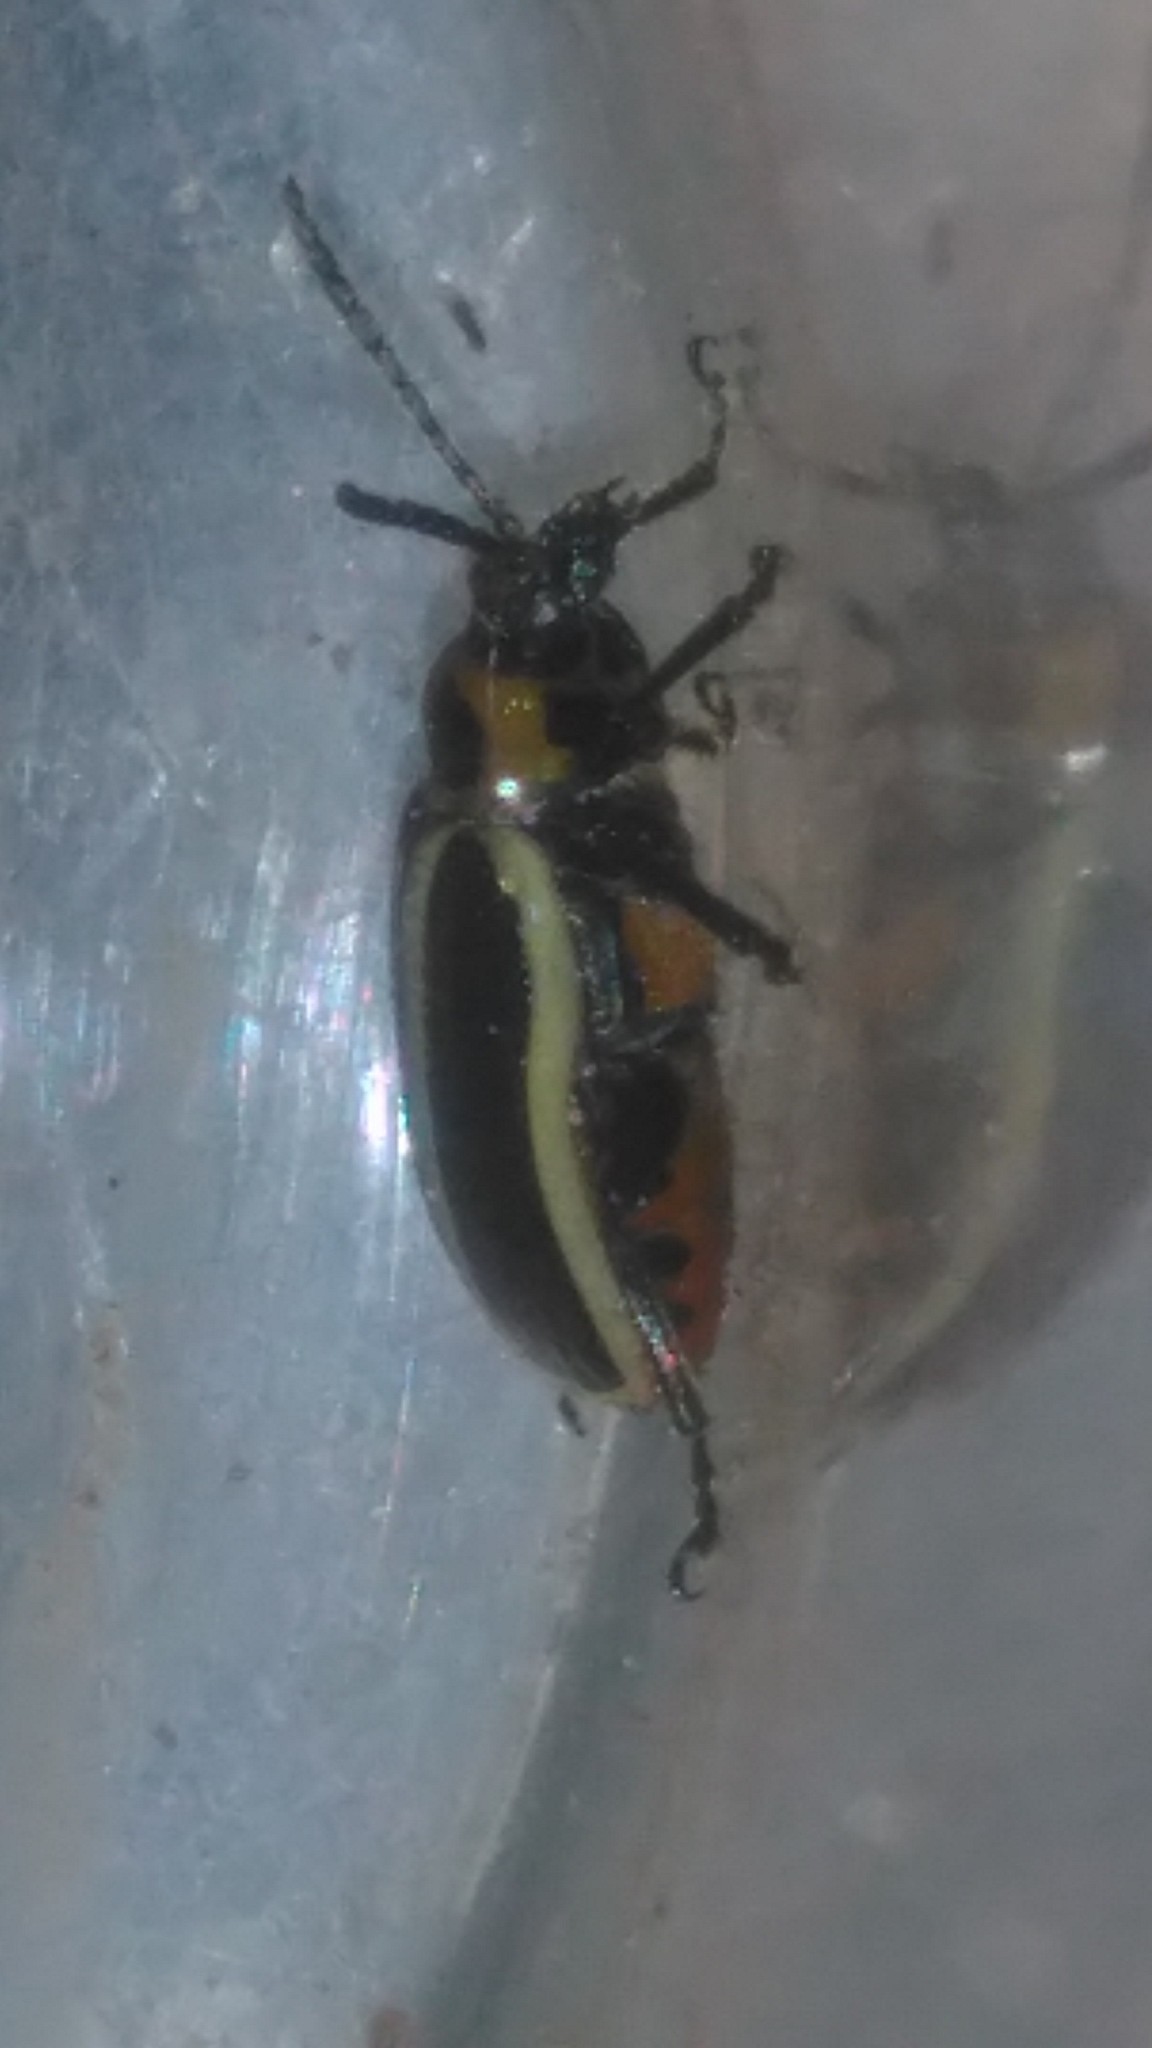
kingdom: Animalia
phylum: Arthropoda
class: Insecta
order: Coleoptera
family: Chrysomelidae
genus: Lema
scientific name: Lema bilineata
